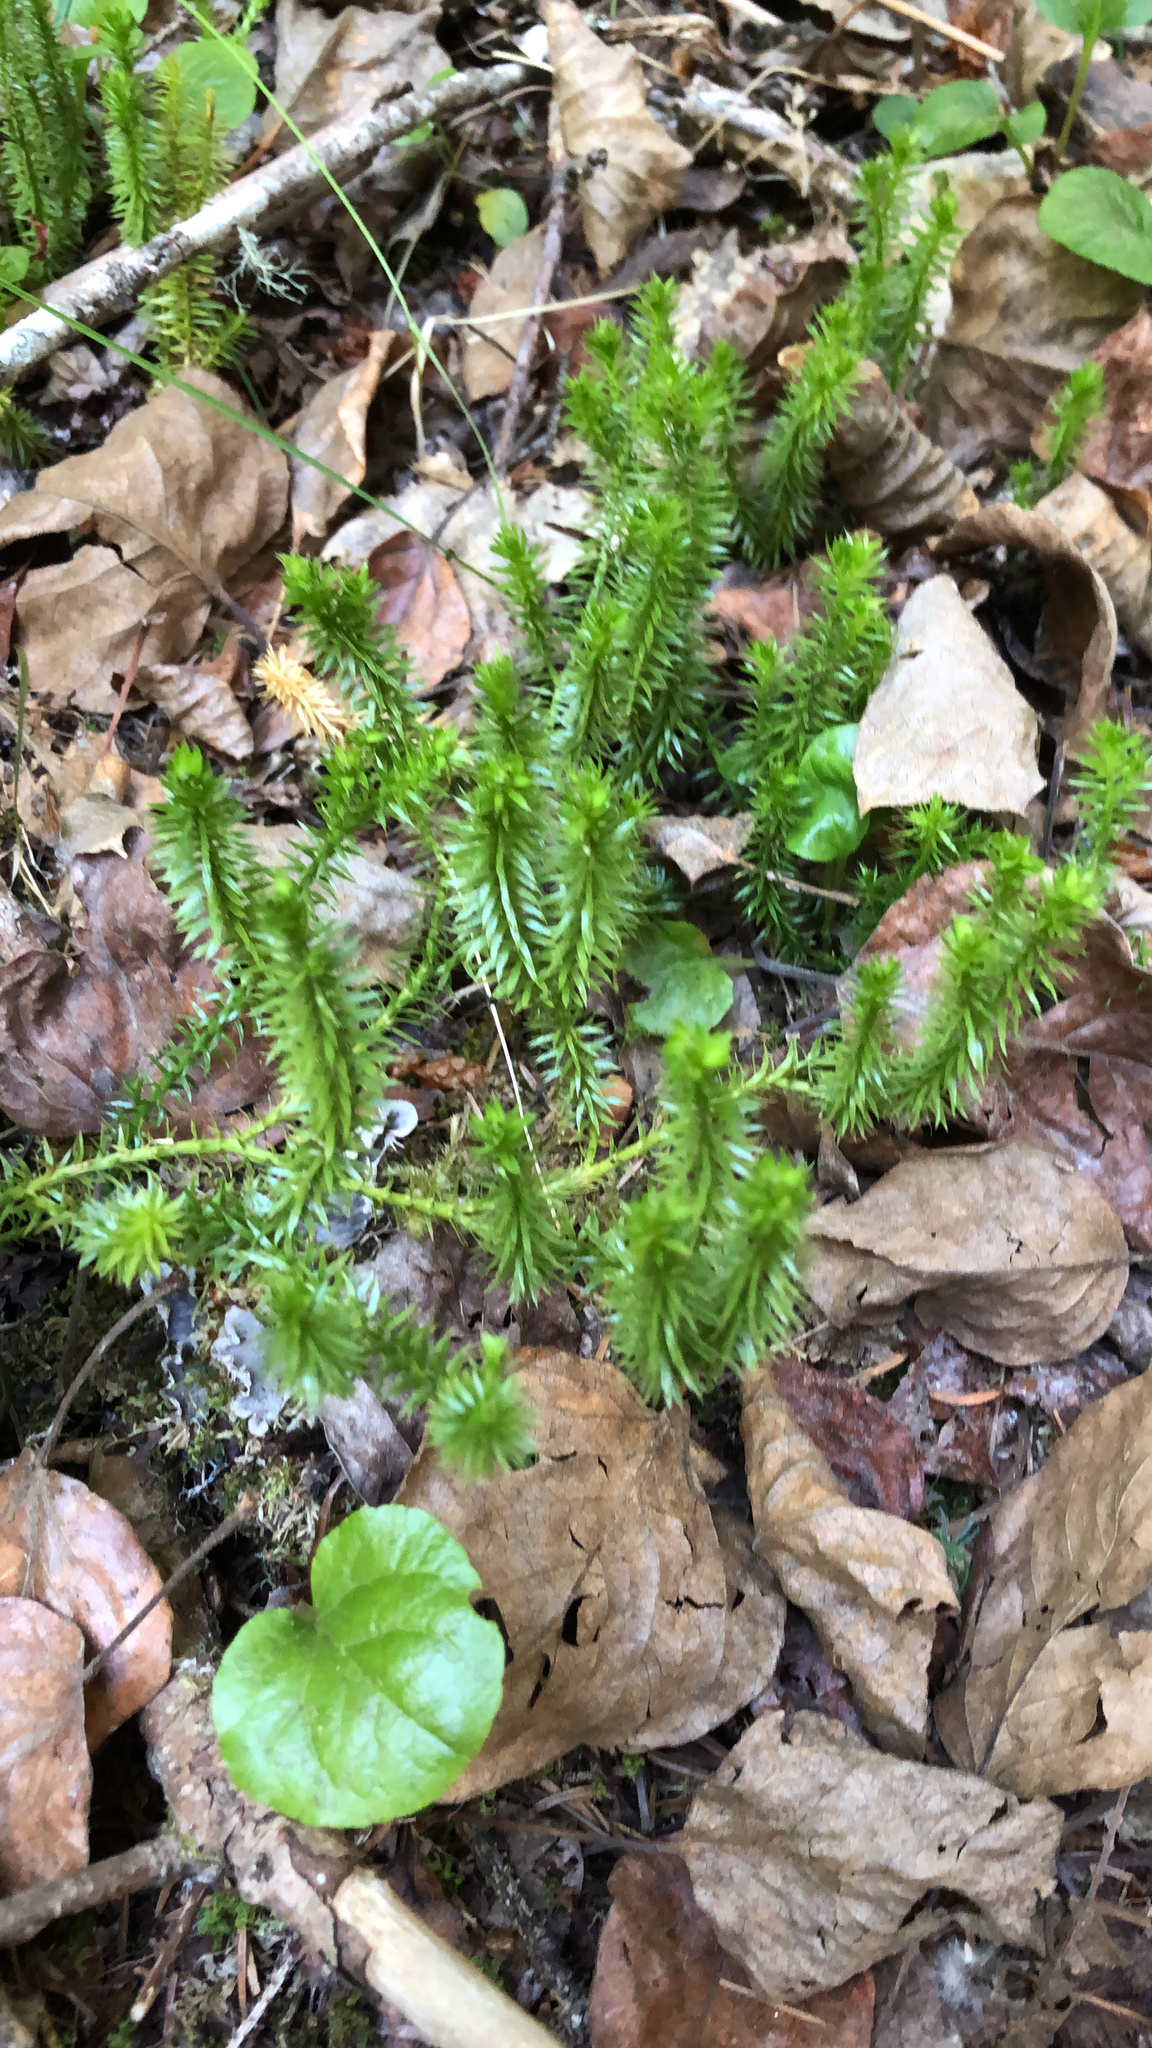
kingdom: Plantae
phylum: Tracheophyta
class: Lycopodiopsida
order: Lycopodiales
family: Lycopodiaceae
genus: Spinulum
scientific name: Spinulum annotinum
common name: Interrupted club-moss
